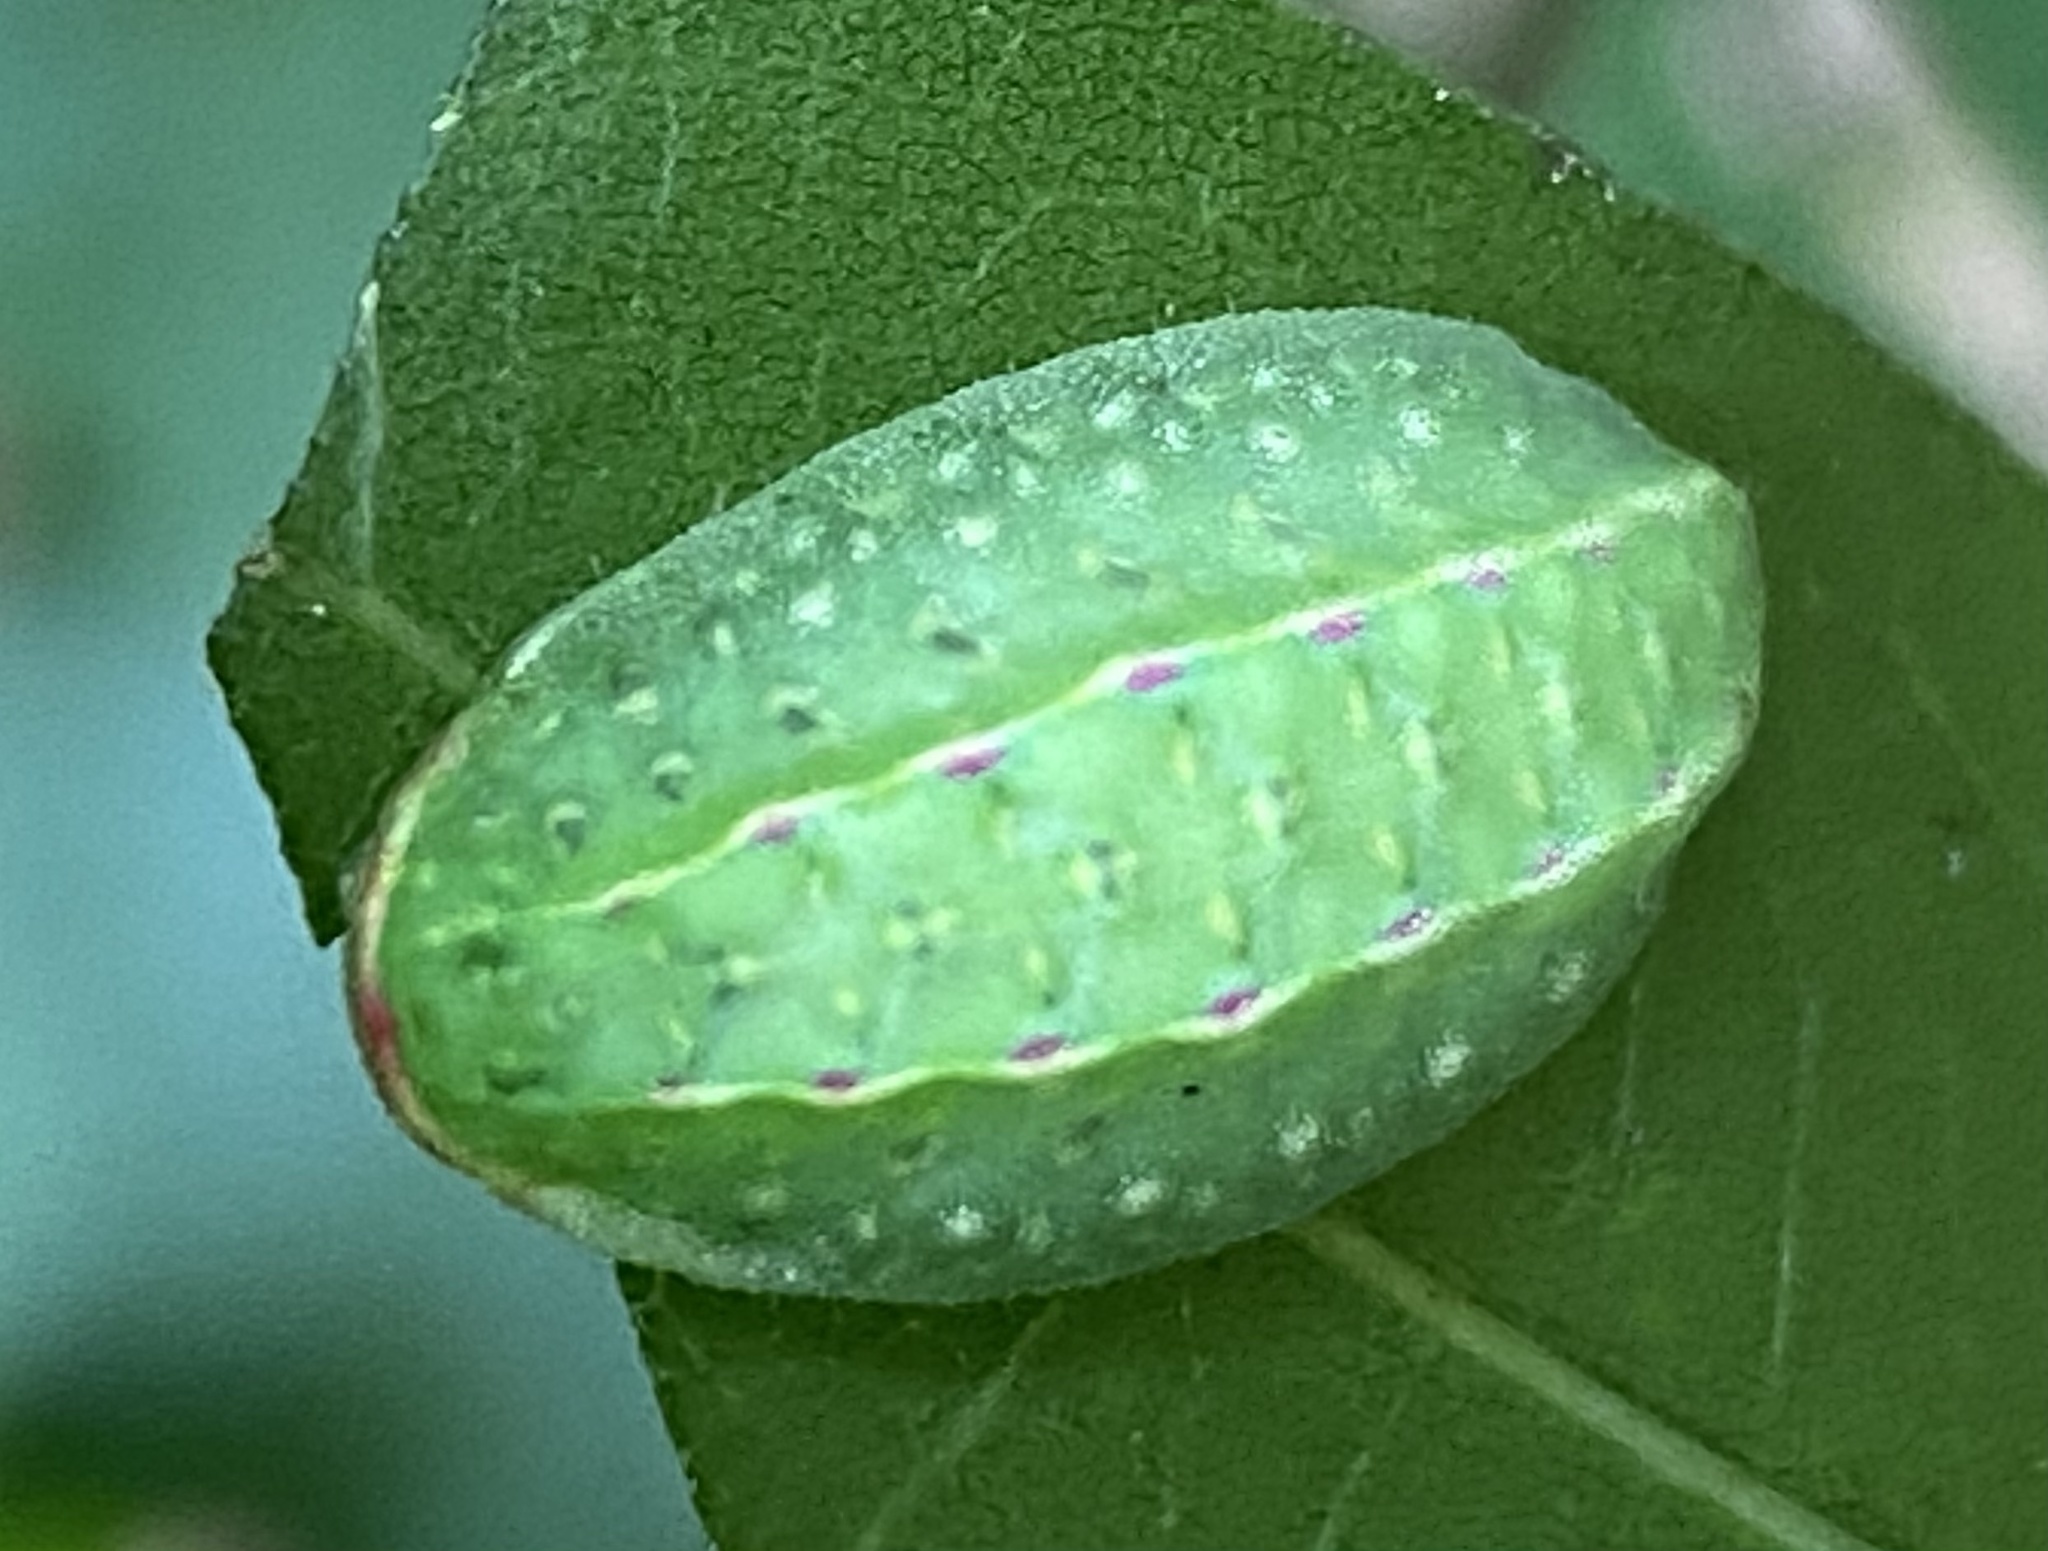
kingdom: Animalia
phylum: Arthropoda
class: Insecta
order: Lepidoptera
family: Limacodidae
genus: Apoda
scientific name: Apoda limacodes
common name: Festoon
